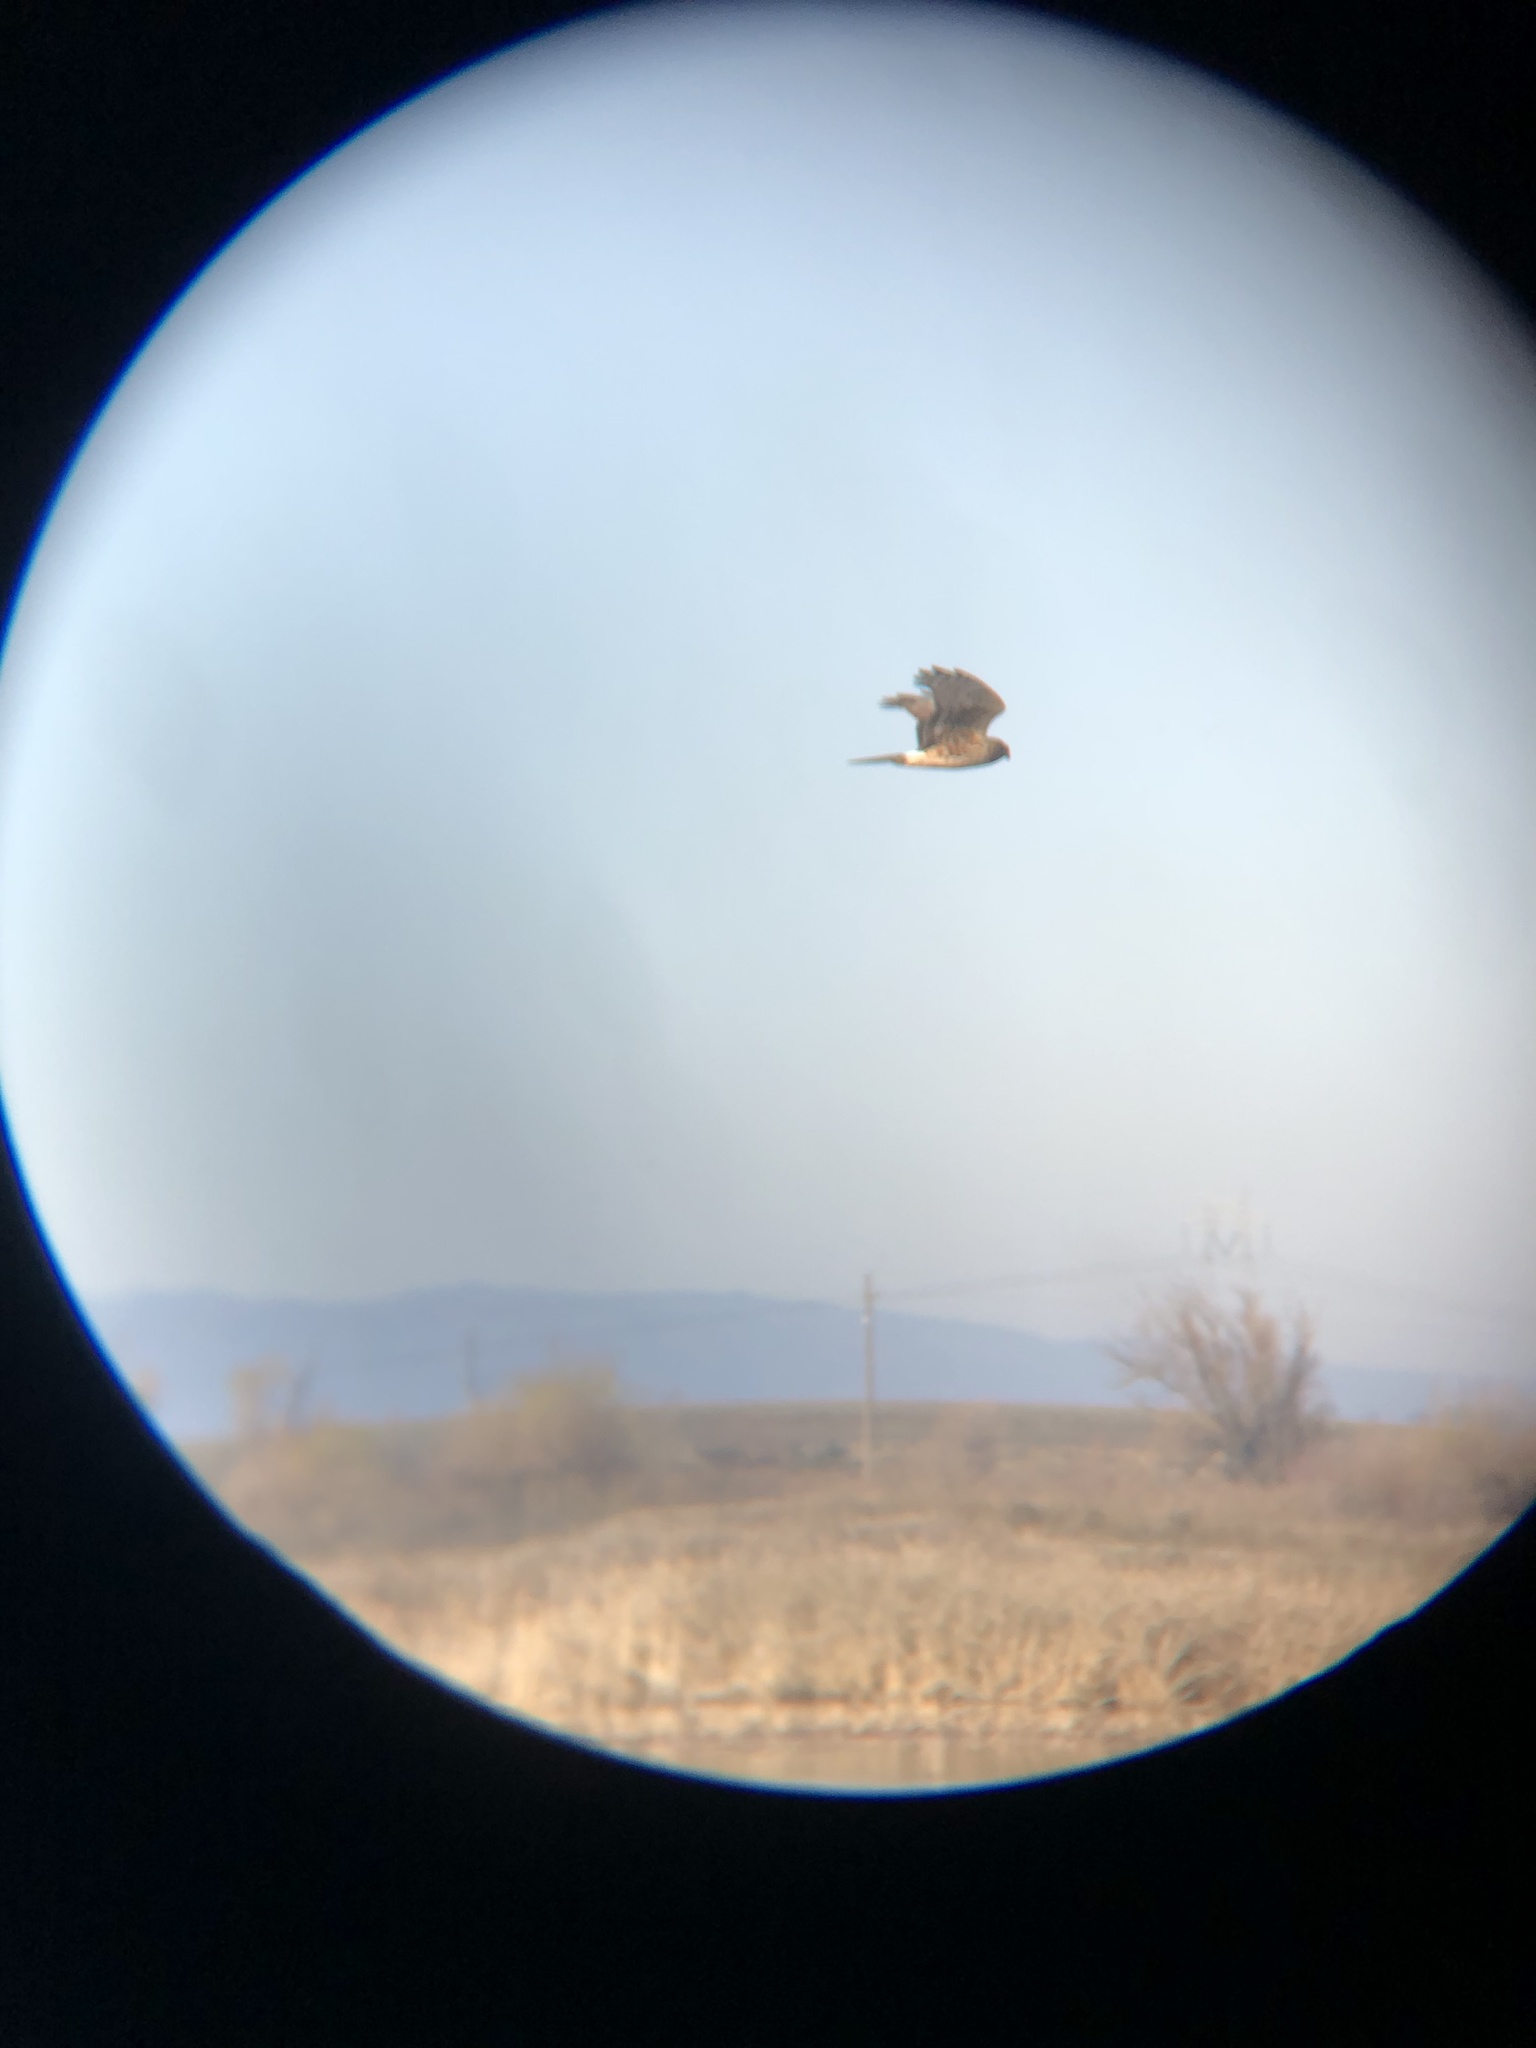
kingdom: Animalia
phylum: Chordata
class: Aves
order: Accipitriformes
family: Accipitridae
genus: Circus
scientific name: Circus cyaneus
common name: Hen harrier
